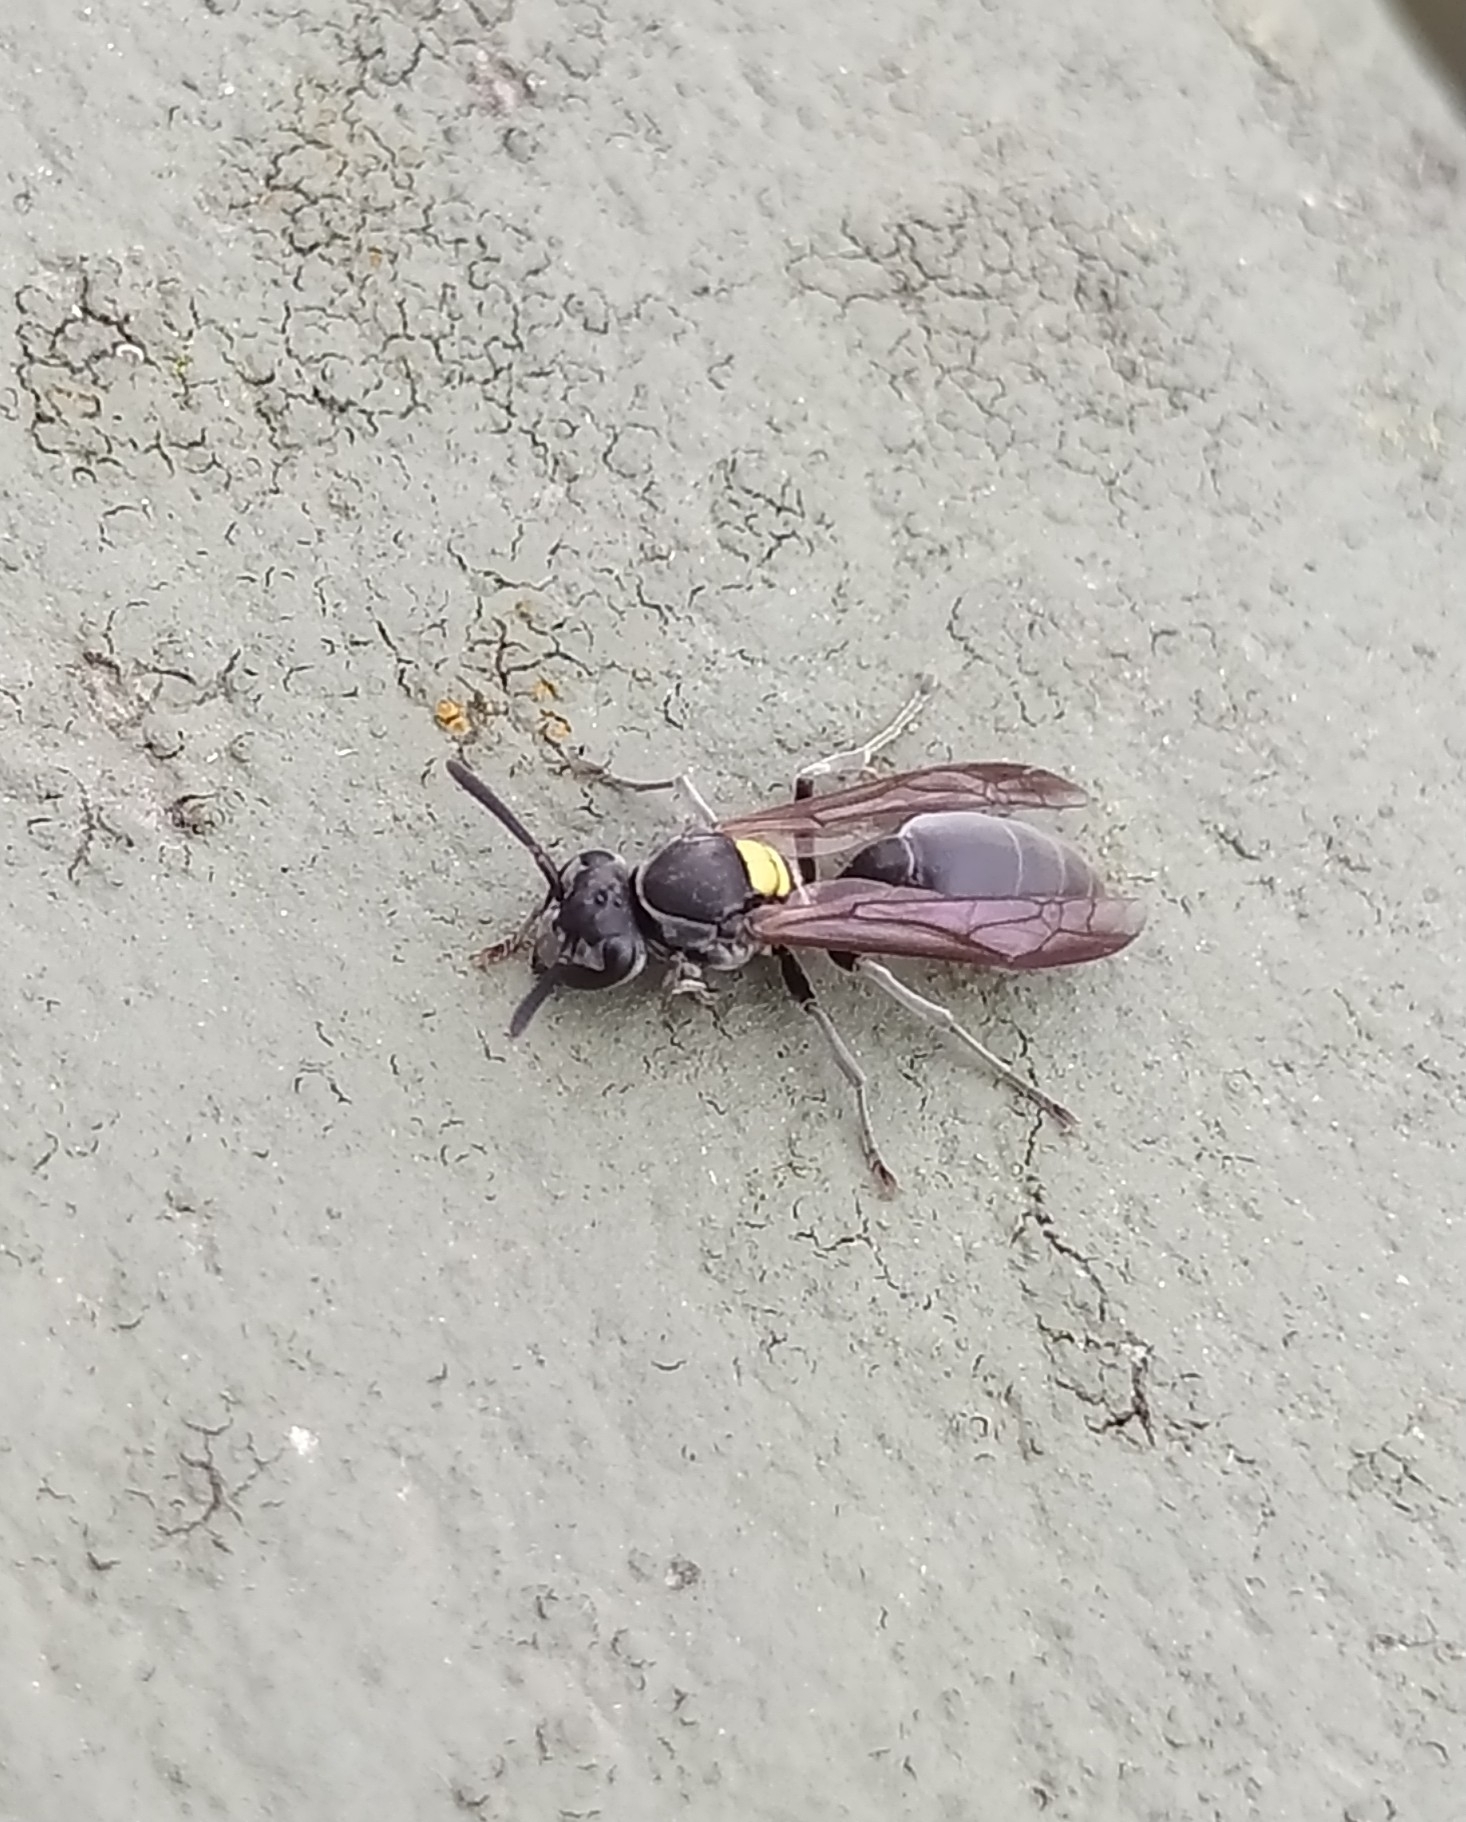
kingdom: Animalia
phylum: Arthropoda
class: Insecta
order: Hymenoptera
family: Eumenidae
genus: Polybia
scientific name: Polybia scutellaris
